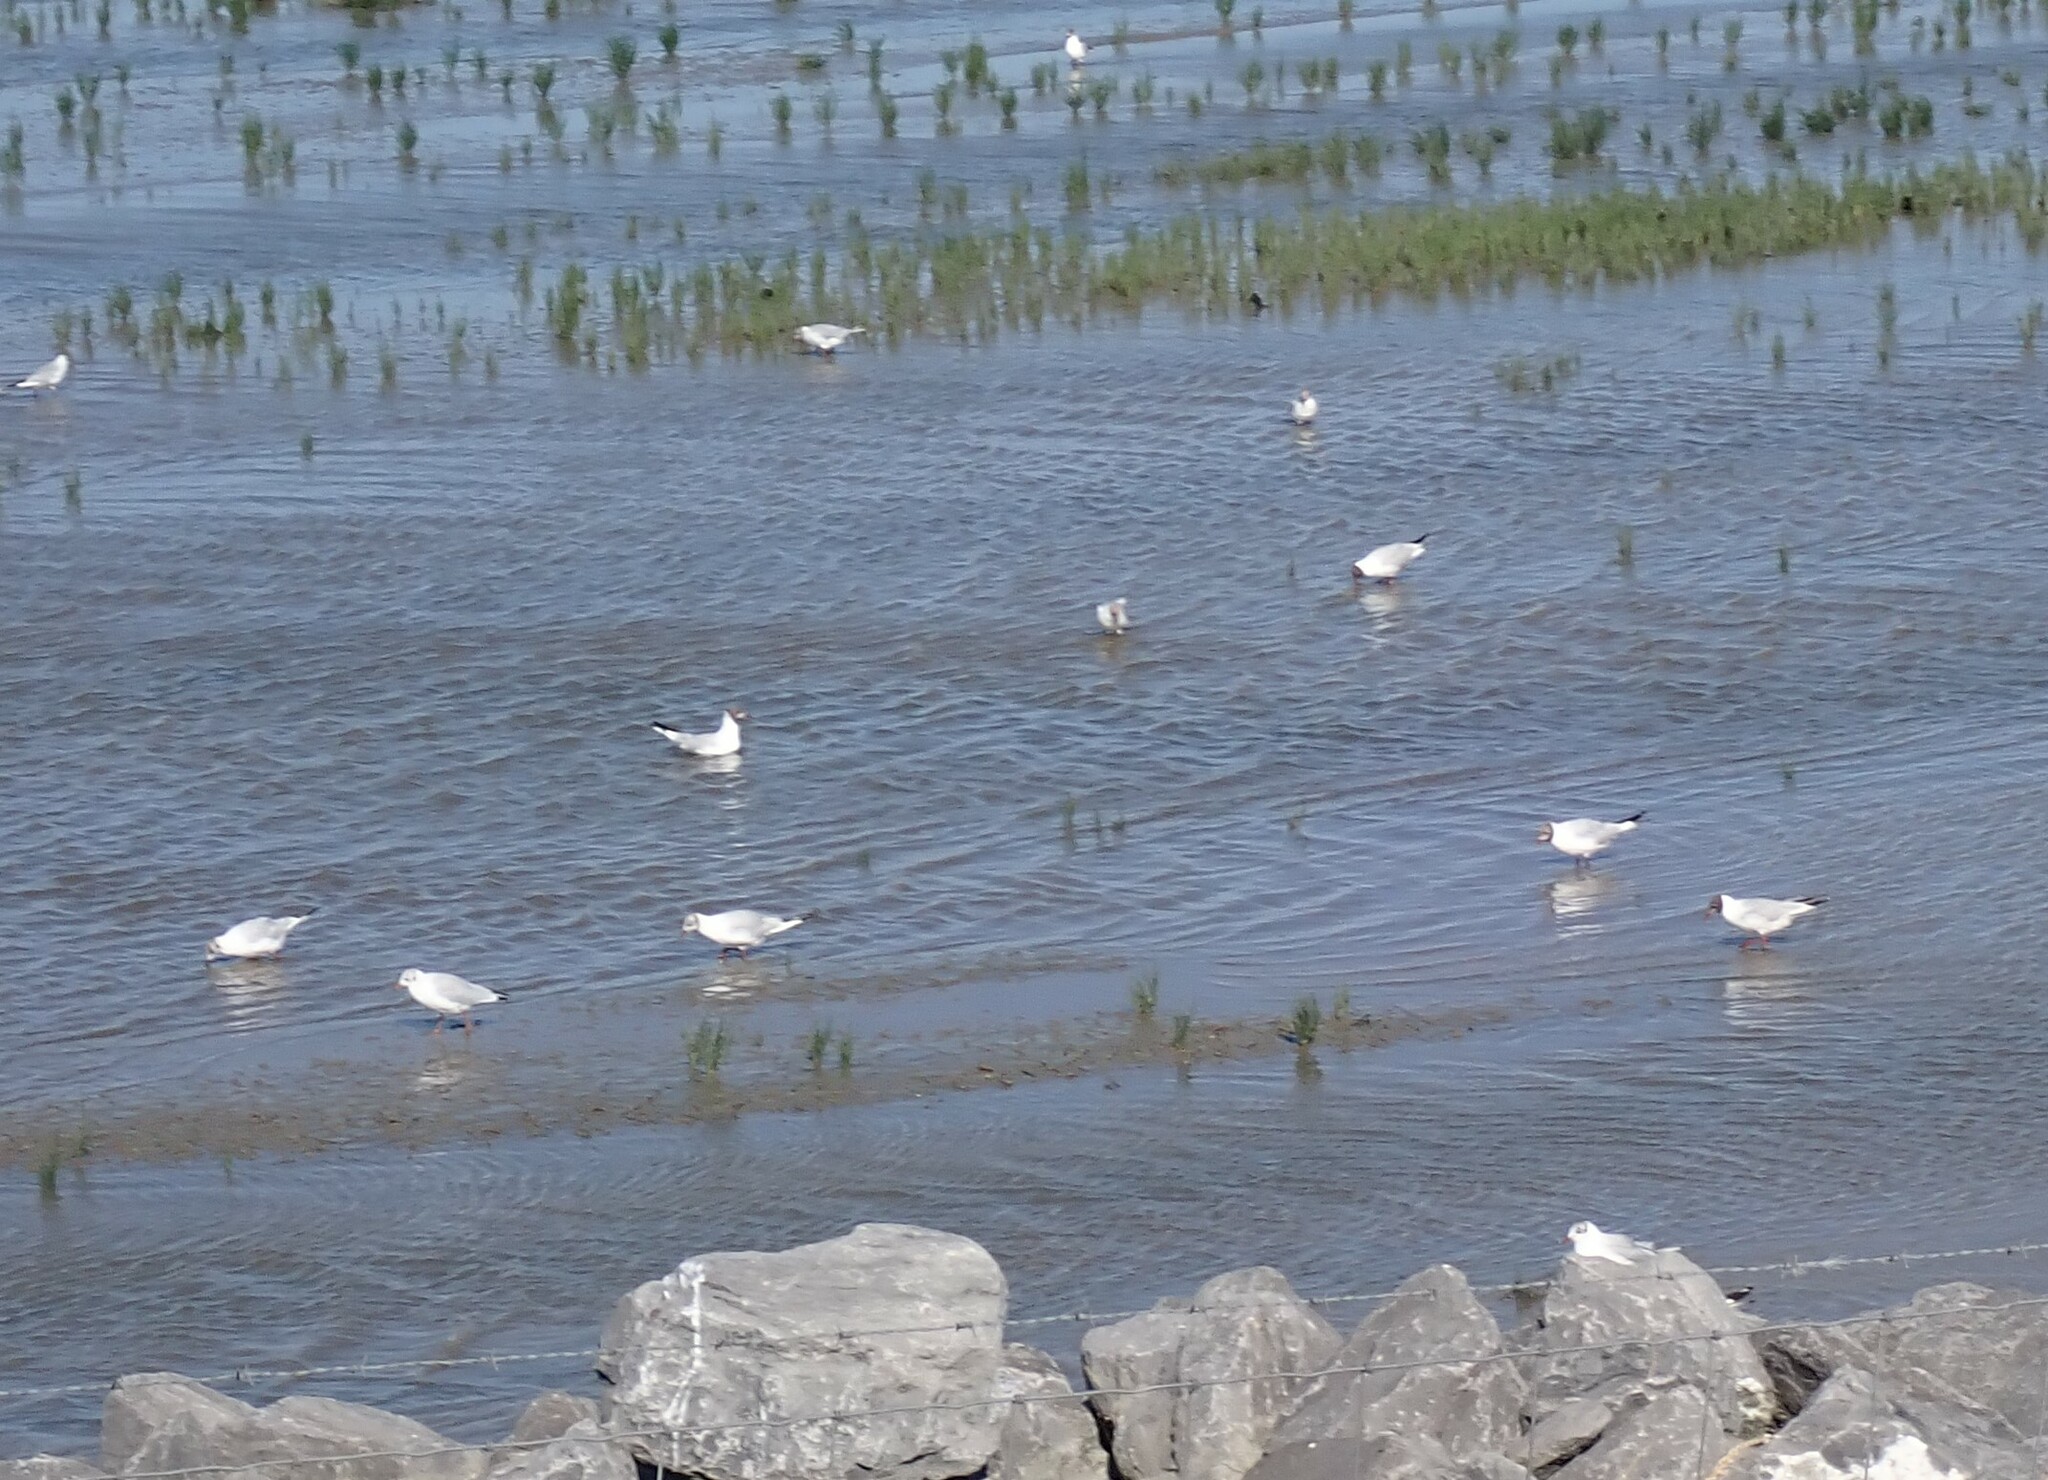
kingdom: Animalia
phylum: Chordata
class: Aves
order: Charadriiformes
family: Laridae
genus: Chroicocephalus
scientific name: Chroicocephalus ridibundus
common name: Black-headed gull
